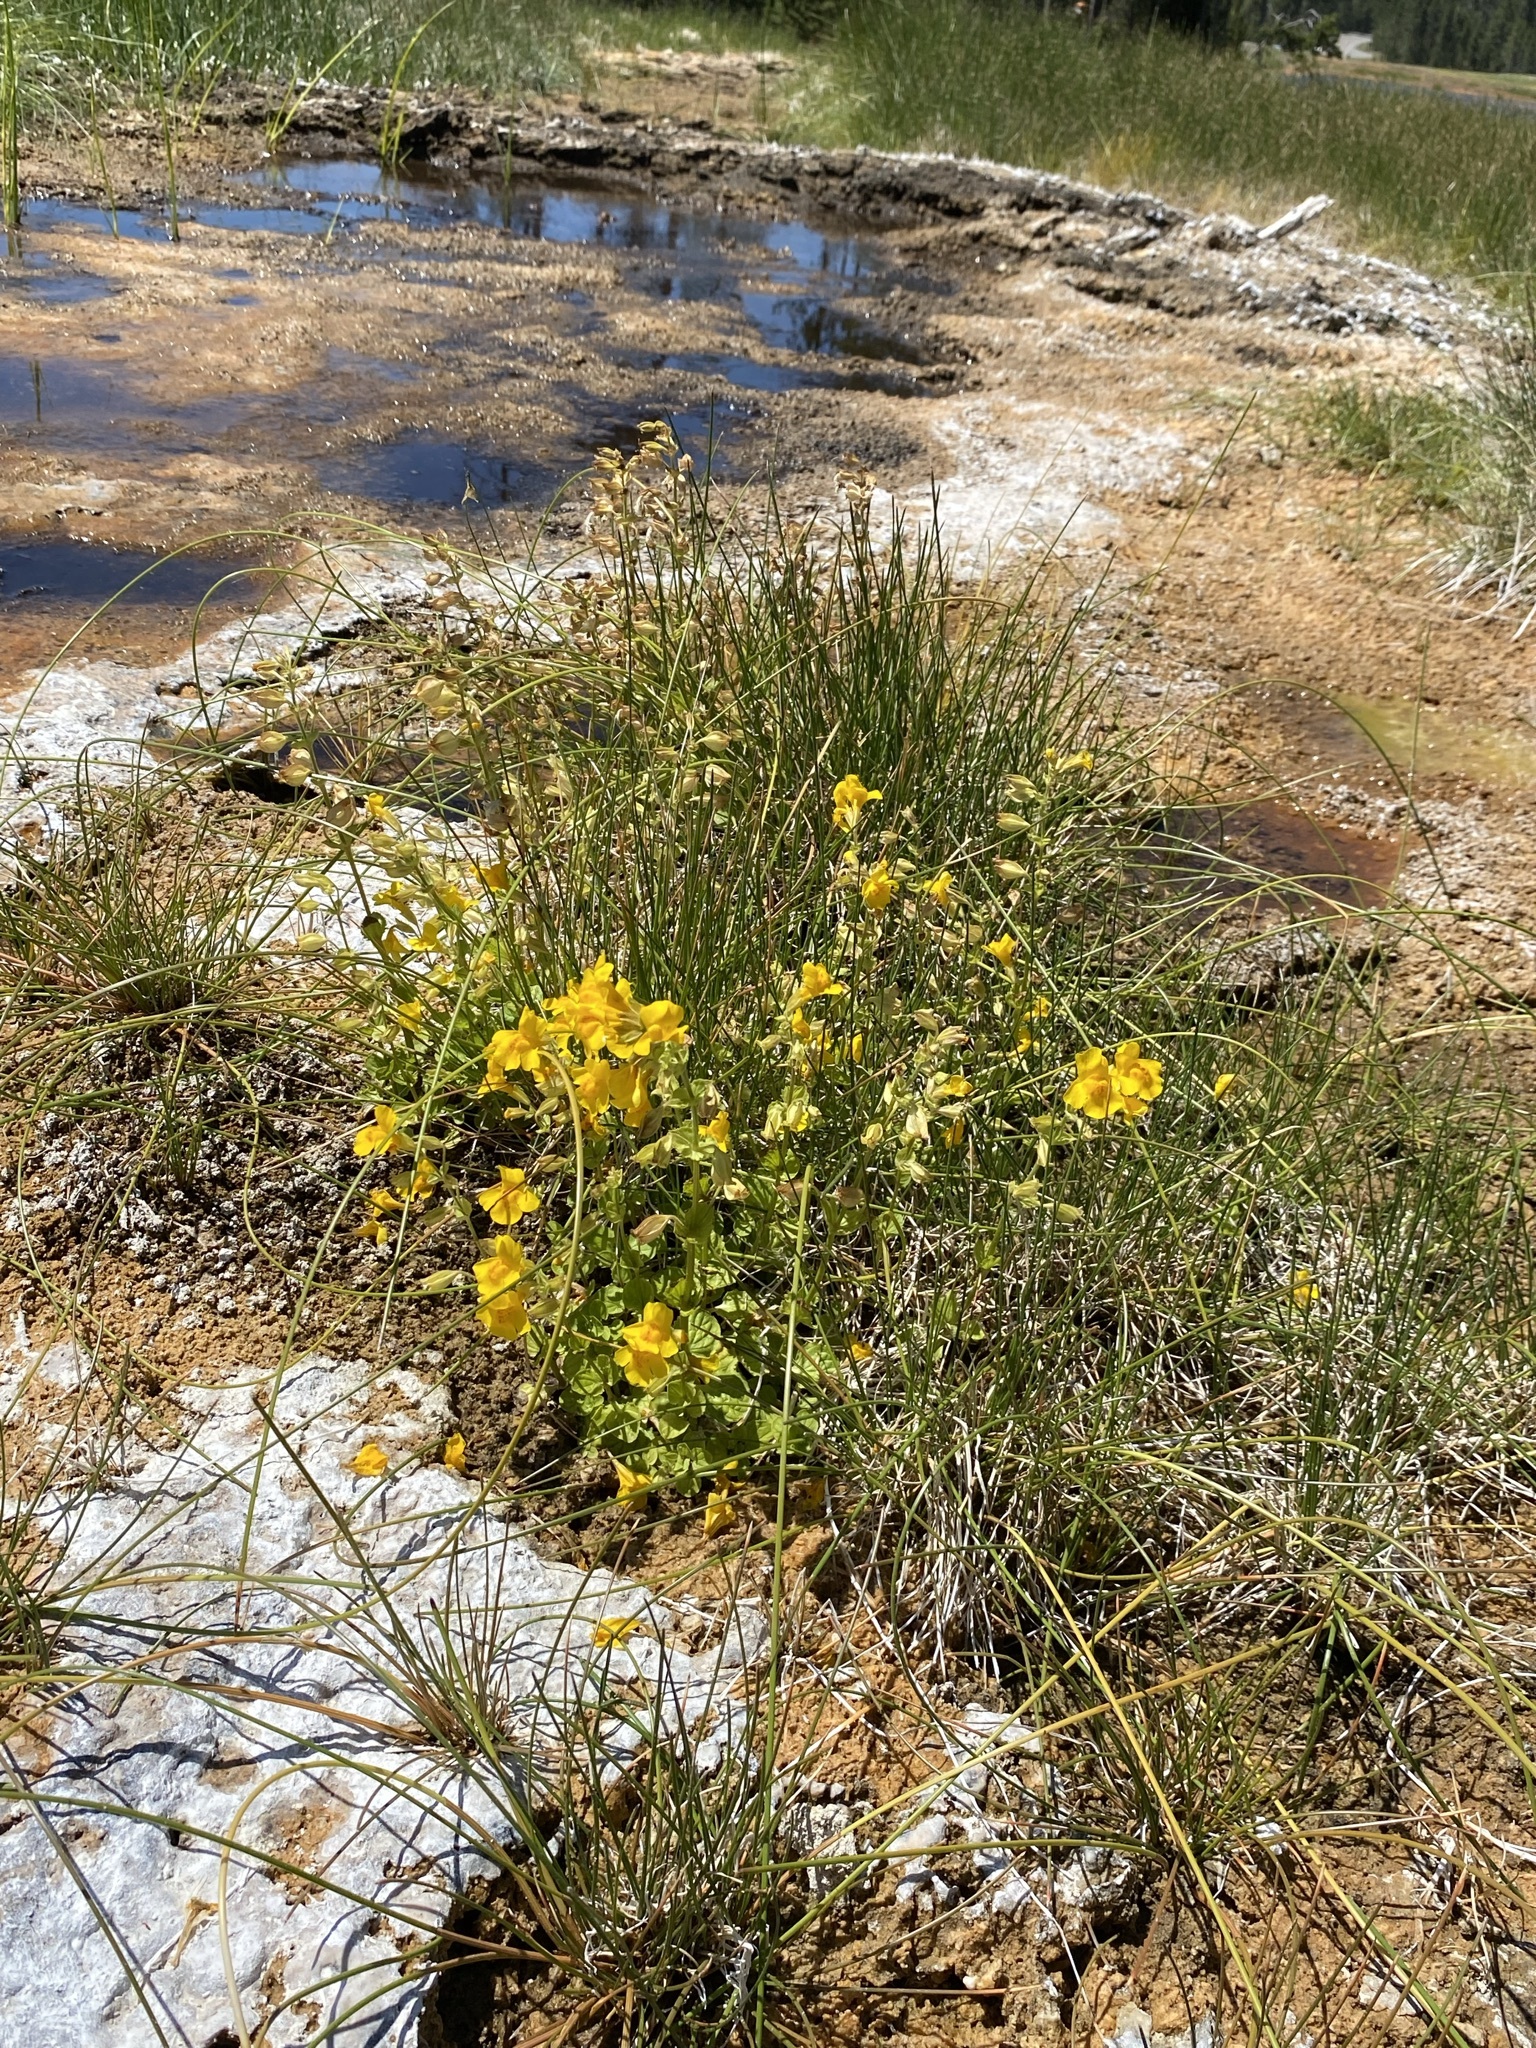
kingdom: Plantae
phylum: Tracheophyta
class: Magnoliopsida
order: Lamiales
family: Phrymaceae
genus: Erythranthe
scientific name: Erythranthe guttata
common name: Monkeyflower
